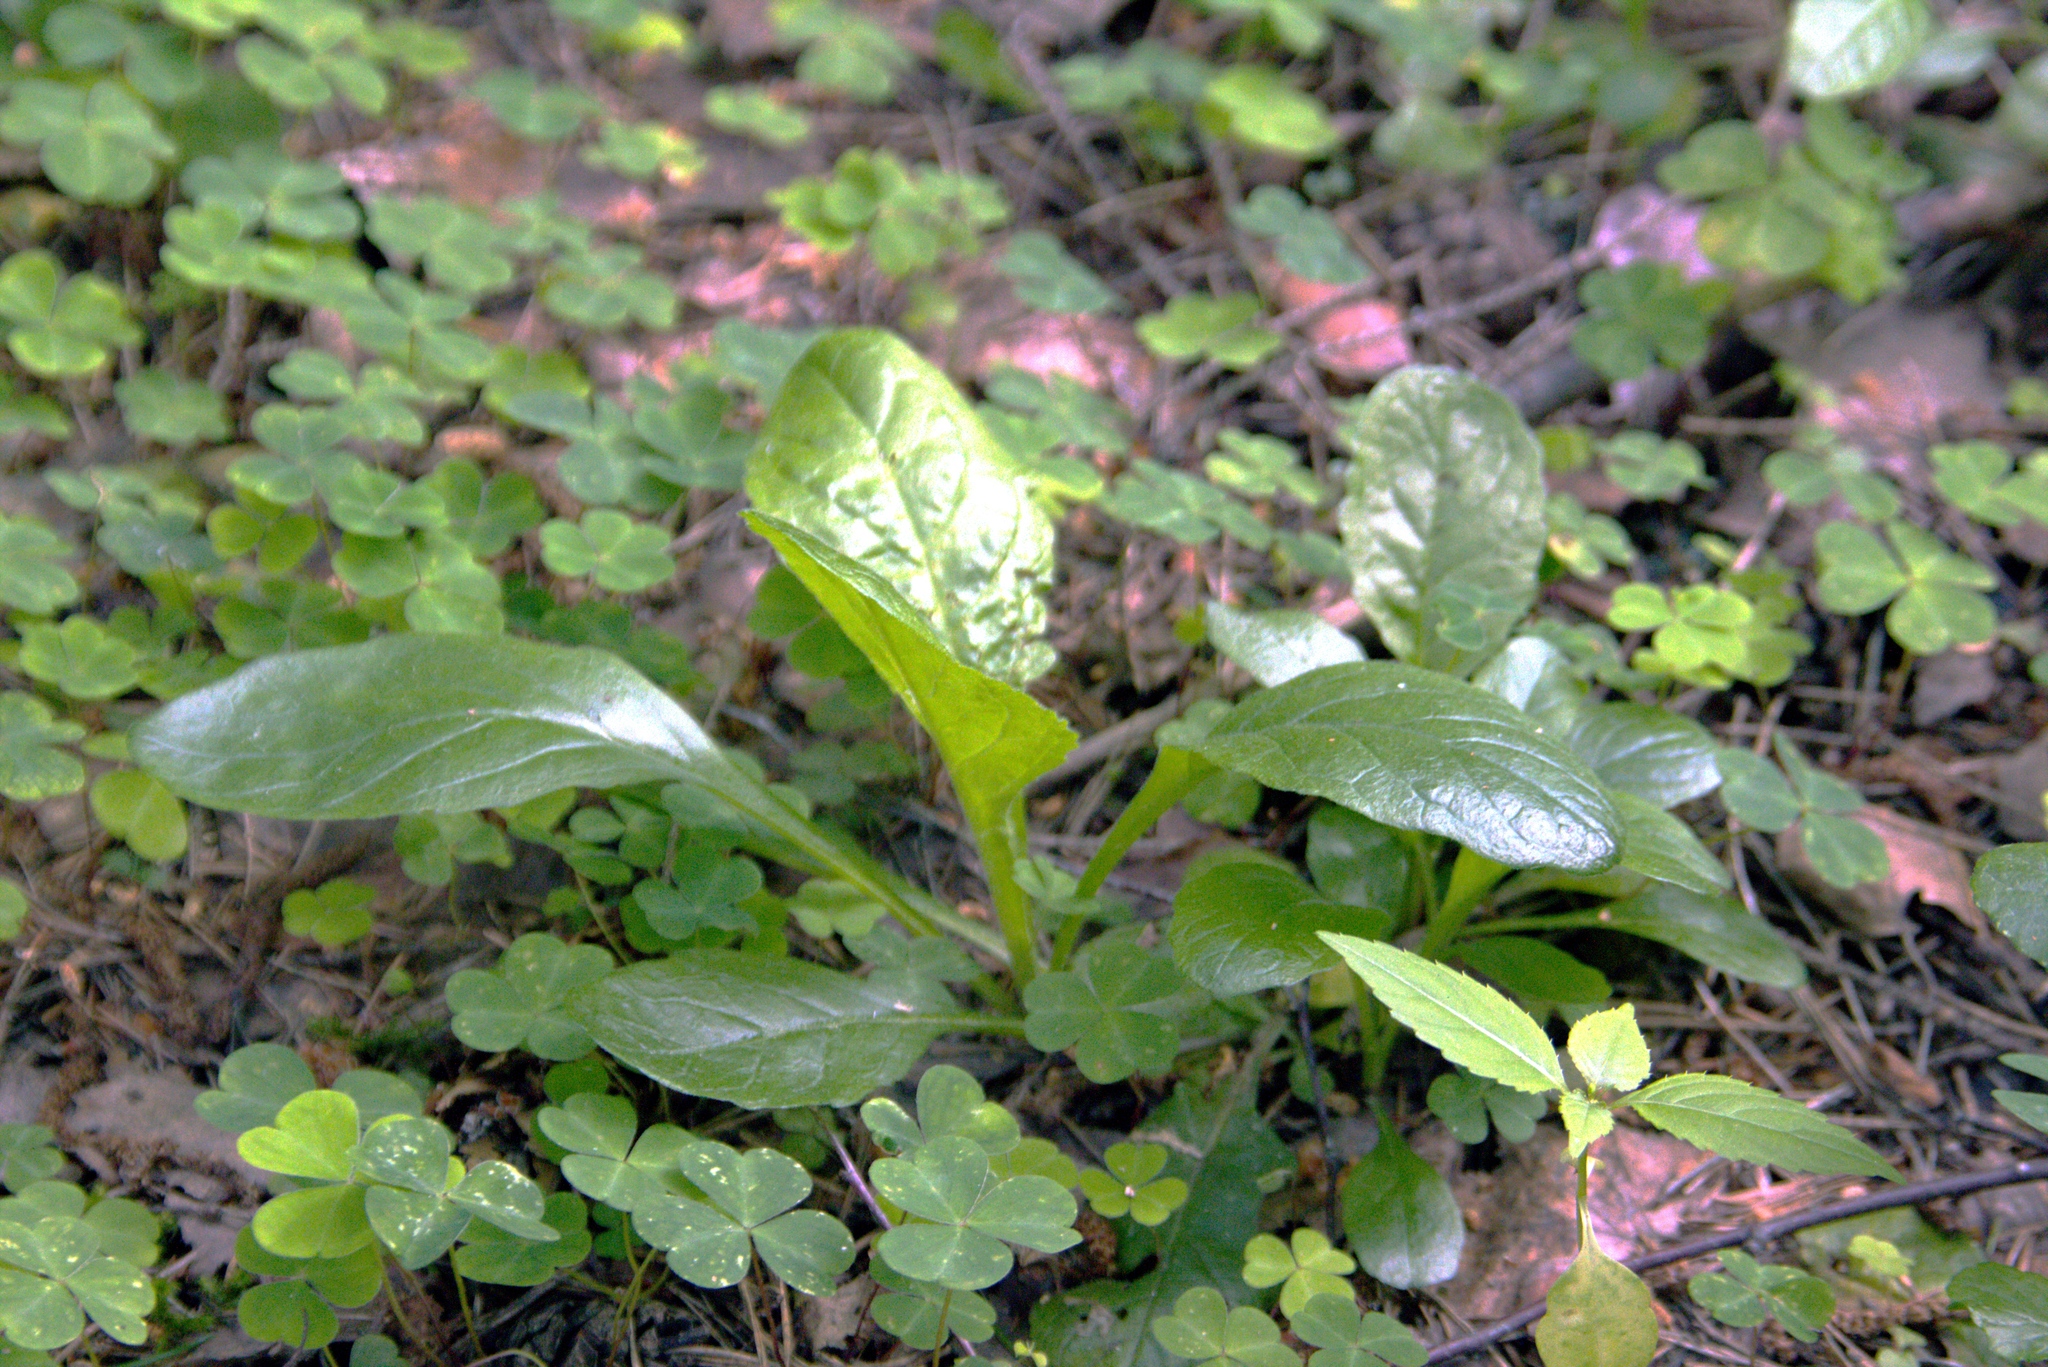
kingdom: Plantae
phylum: Tracheophyta
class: Magnoliopsida
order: Lamiales
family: Lamiaceae
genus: Ajuga
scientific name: Ajuga reptans
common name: Bugle
